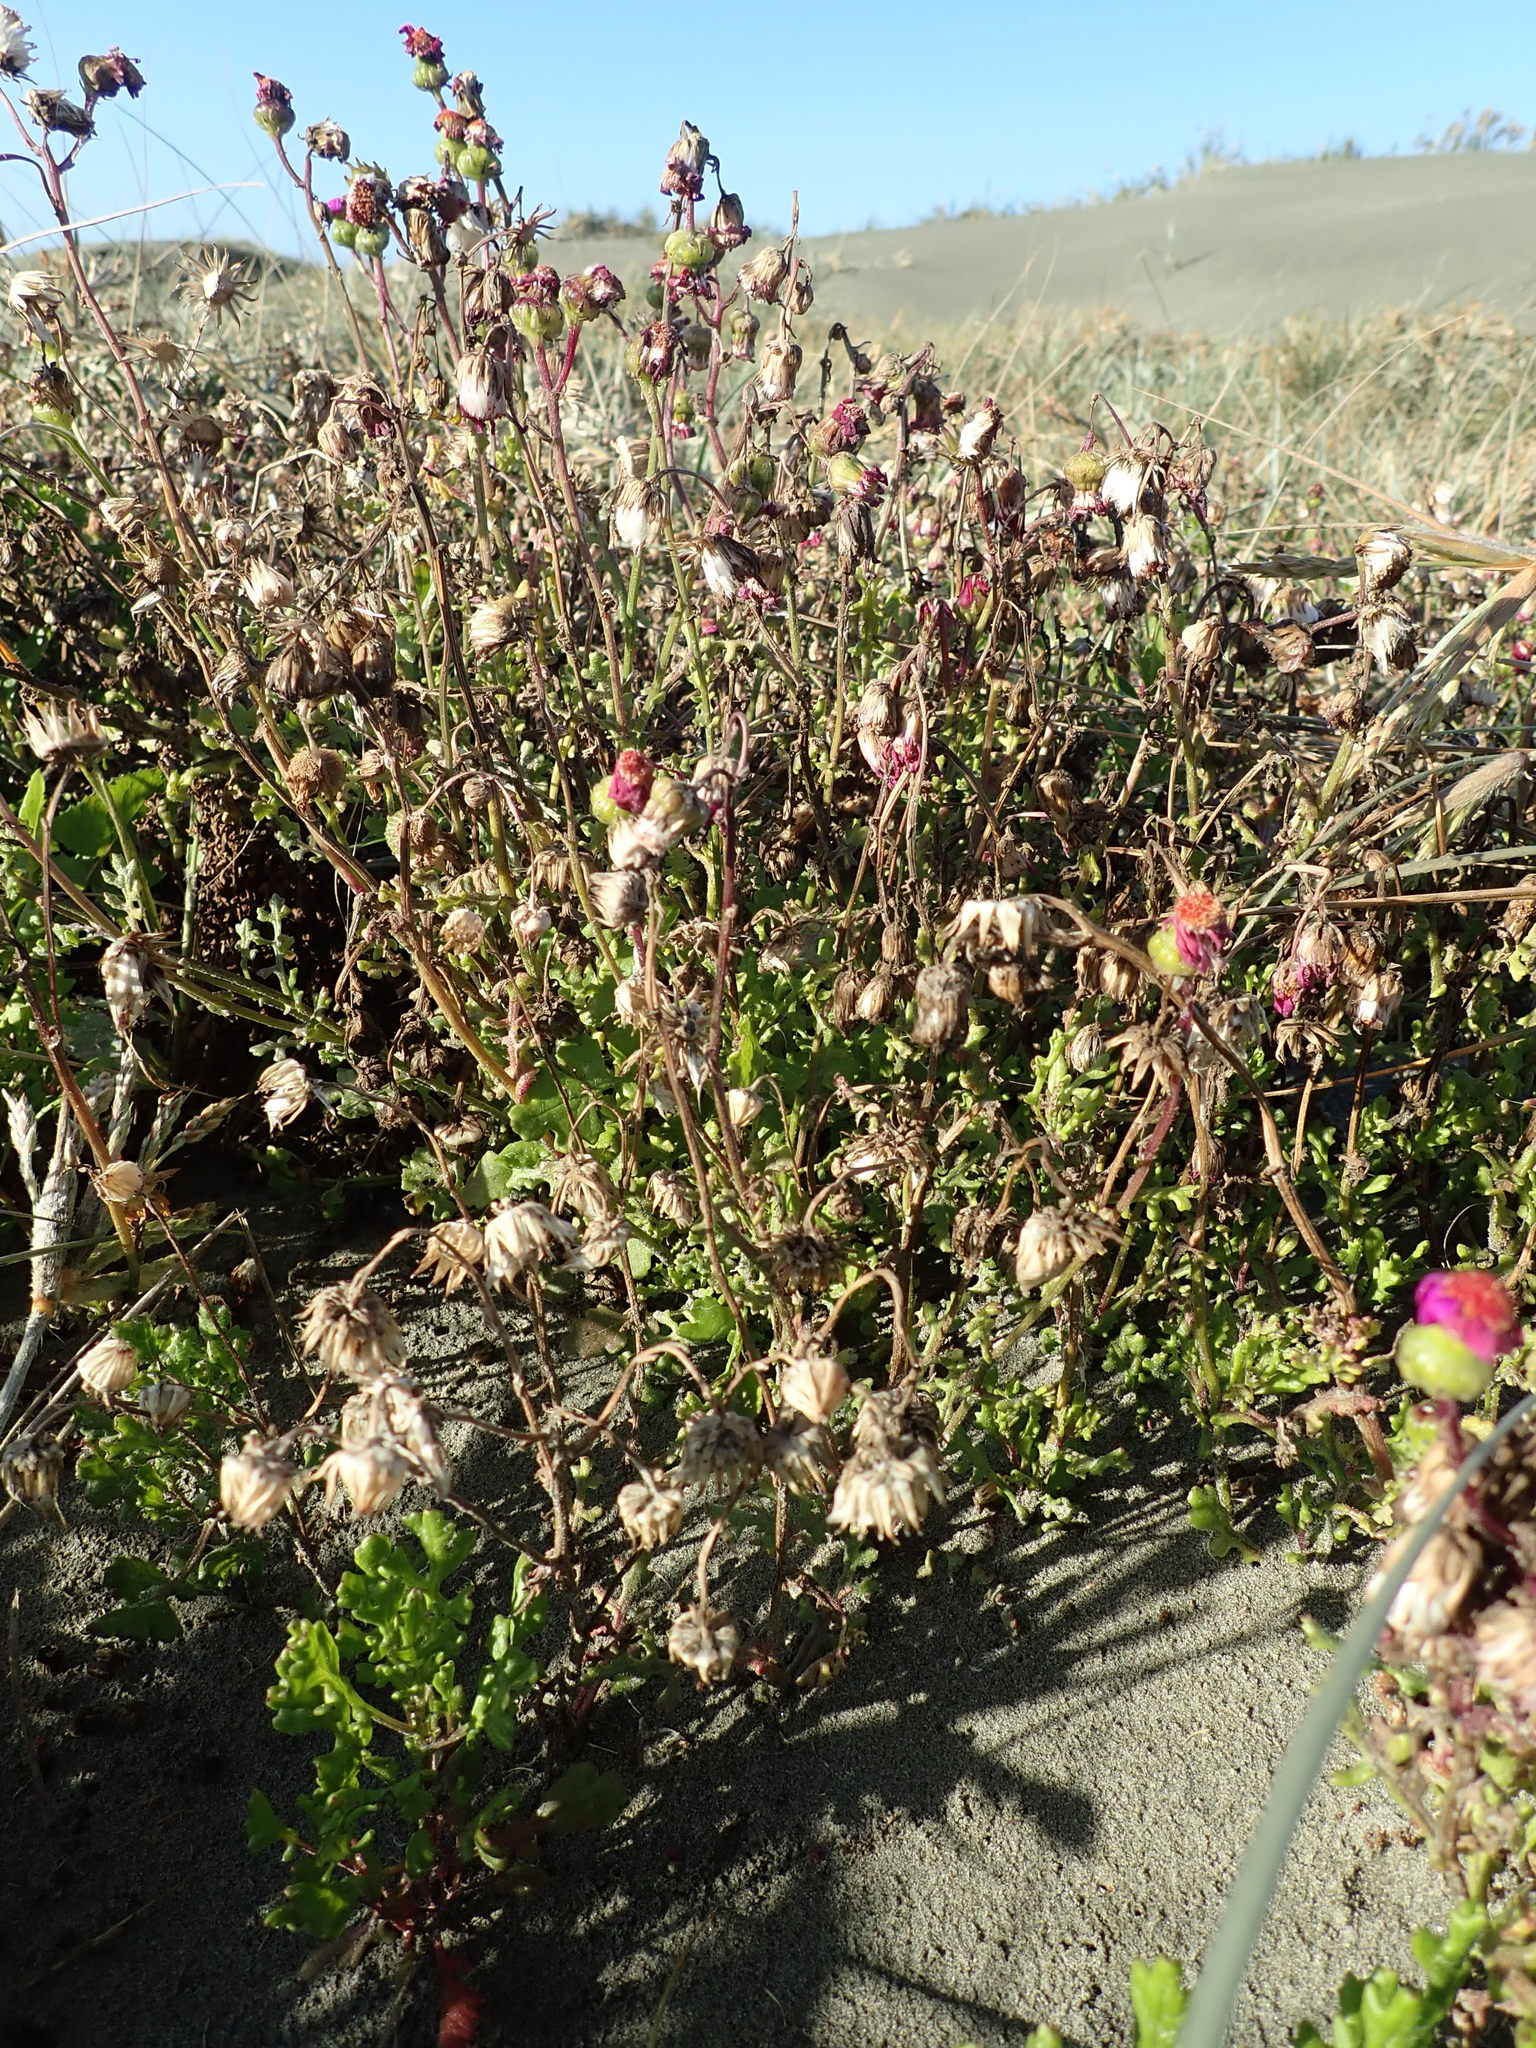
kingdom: Plantae
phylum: Tracheophyta
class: Magnoliopsida
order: Asterales
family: Asteraceae
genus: Senecio
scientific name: Senecio elegans
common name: Purple groundsel
